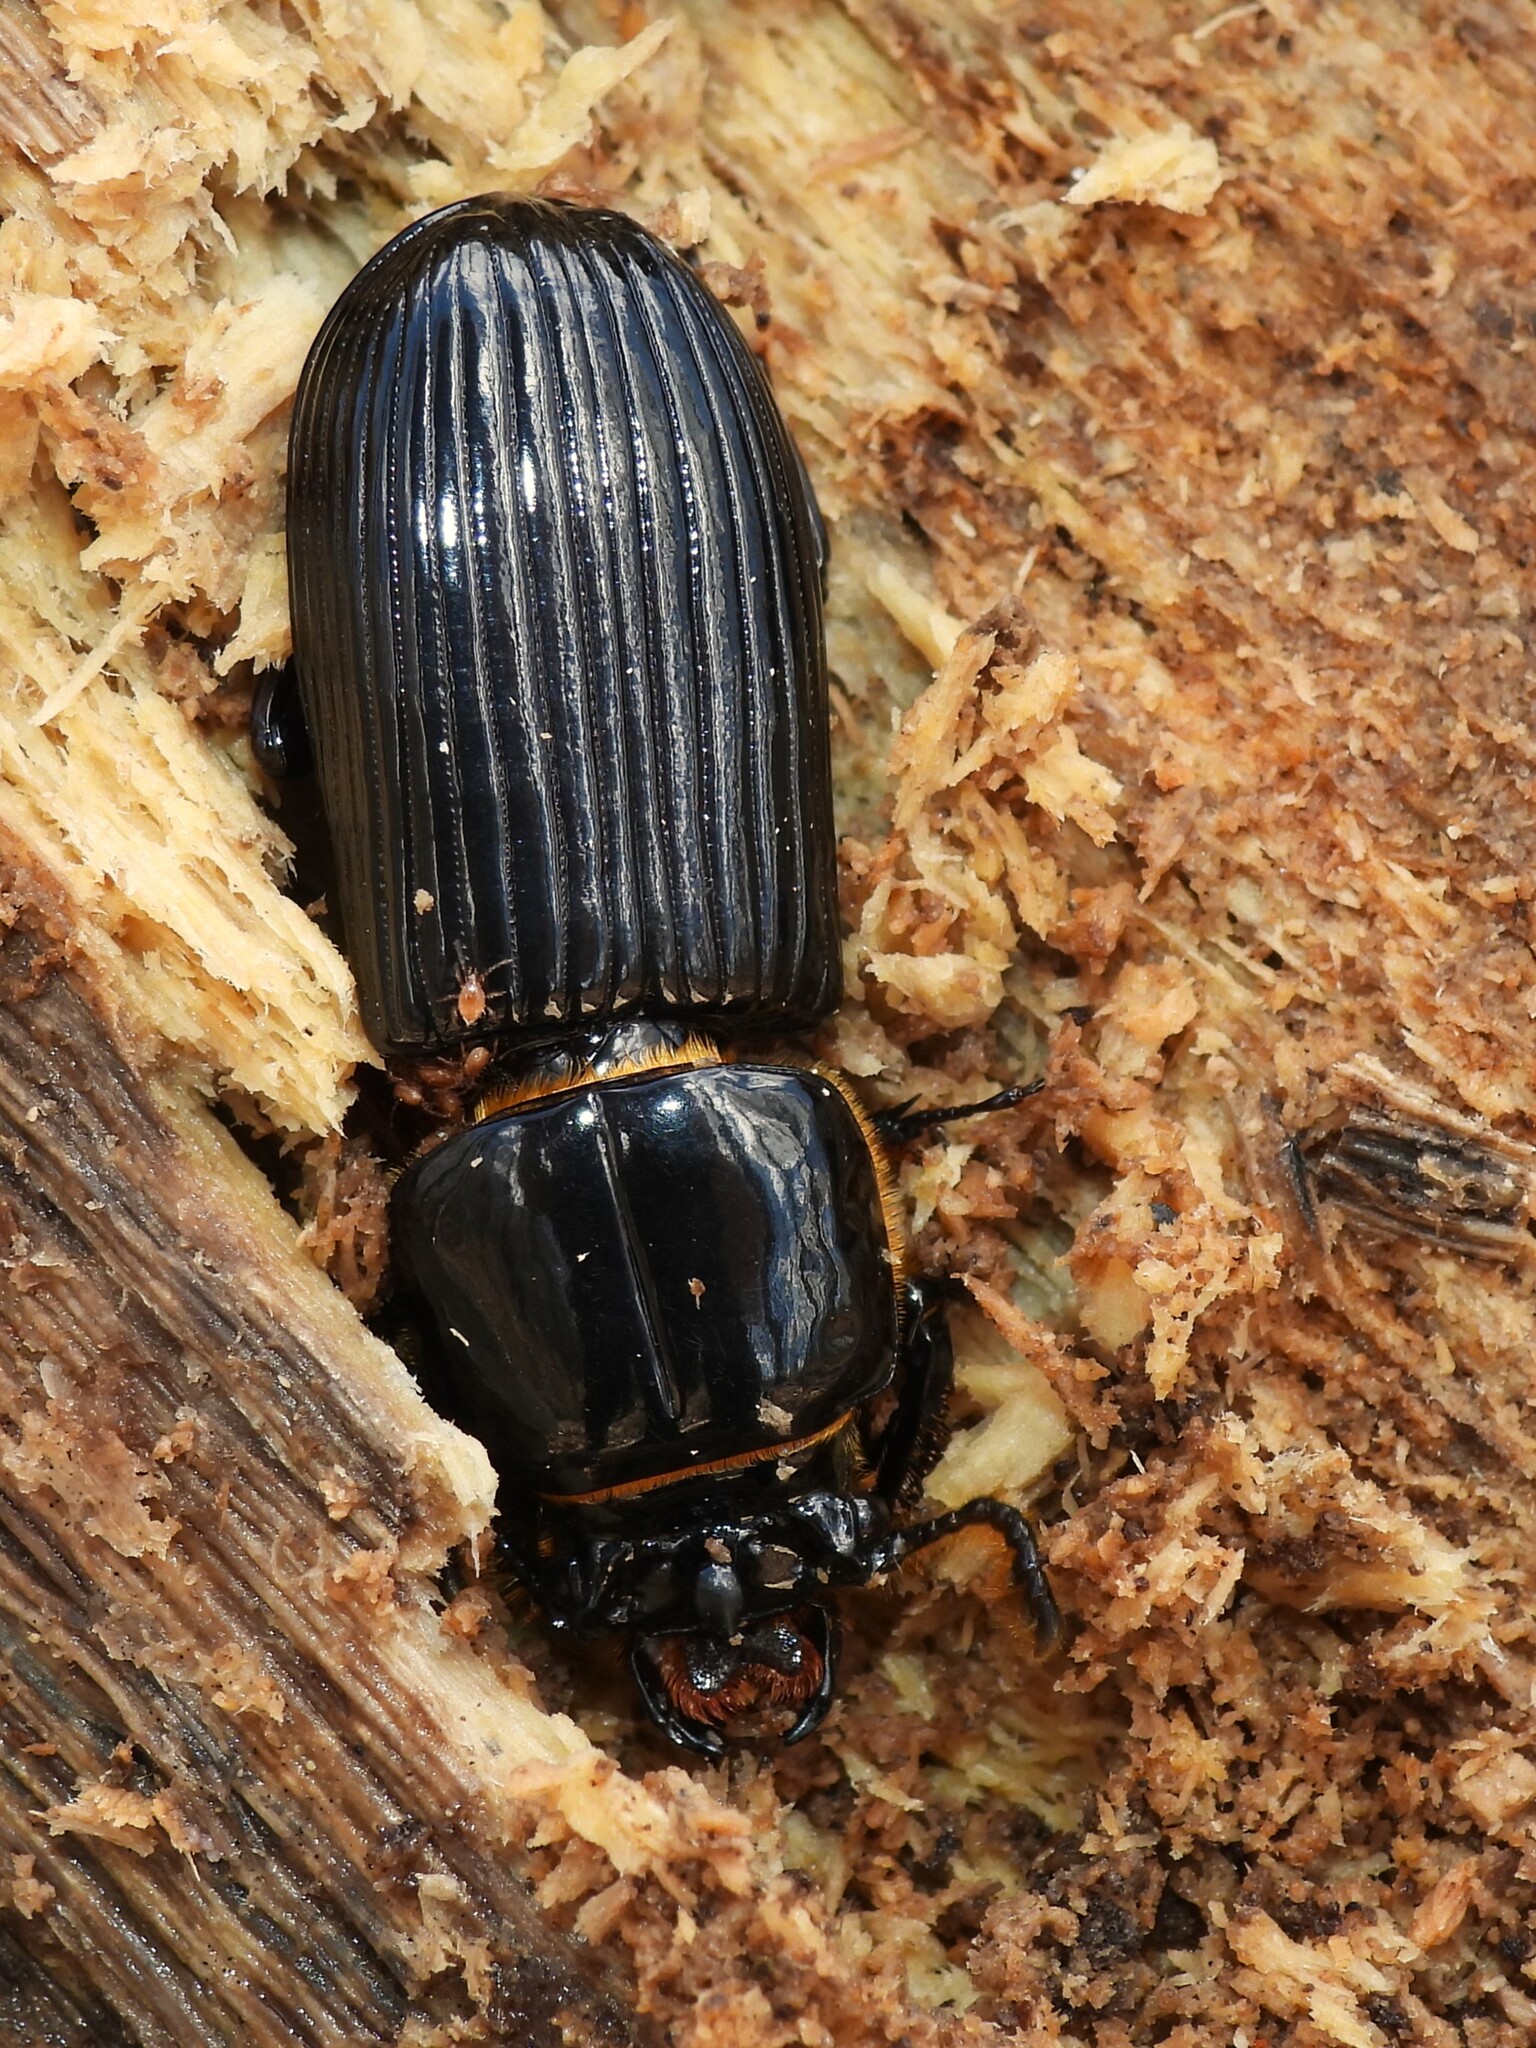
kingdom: Animalia
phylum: Arthropoda
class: Insecta
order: Coleoptera
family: Passalidae
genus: Odontotaenius
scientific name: Odontotaenius disjunctus
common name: Patent leather beetle
